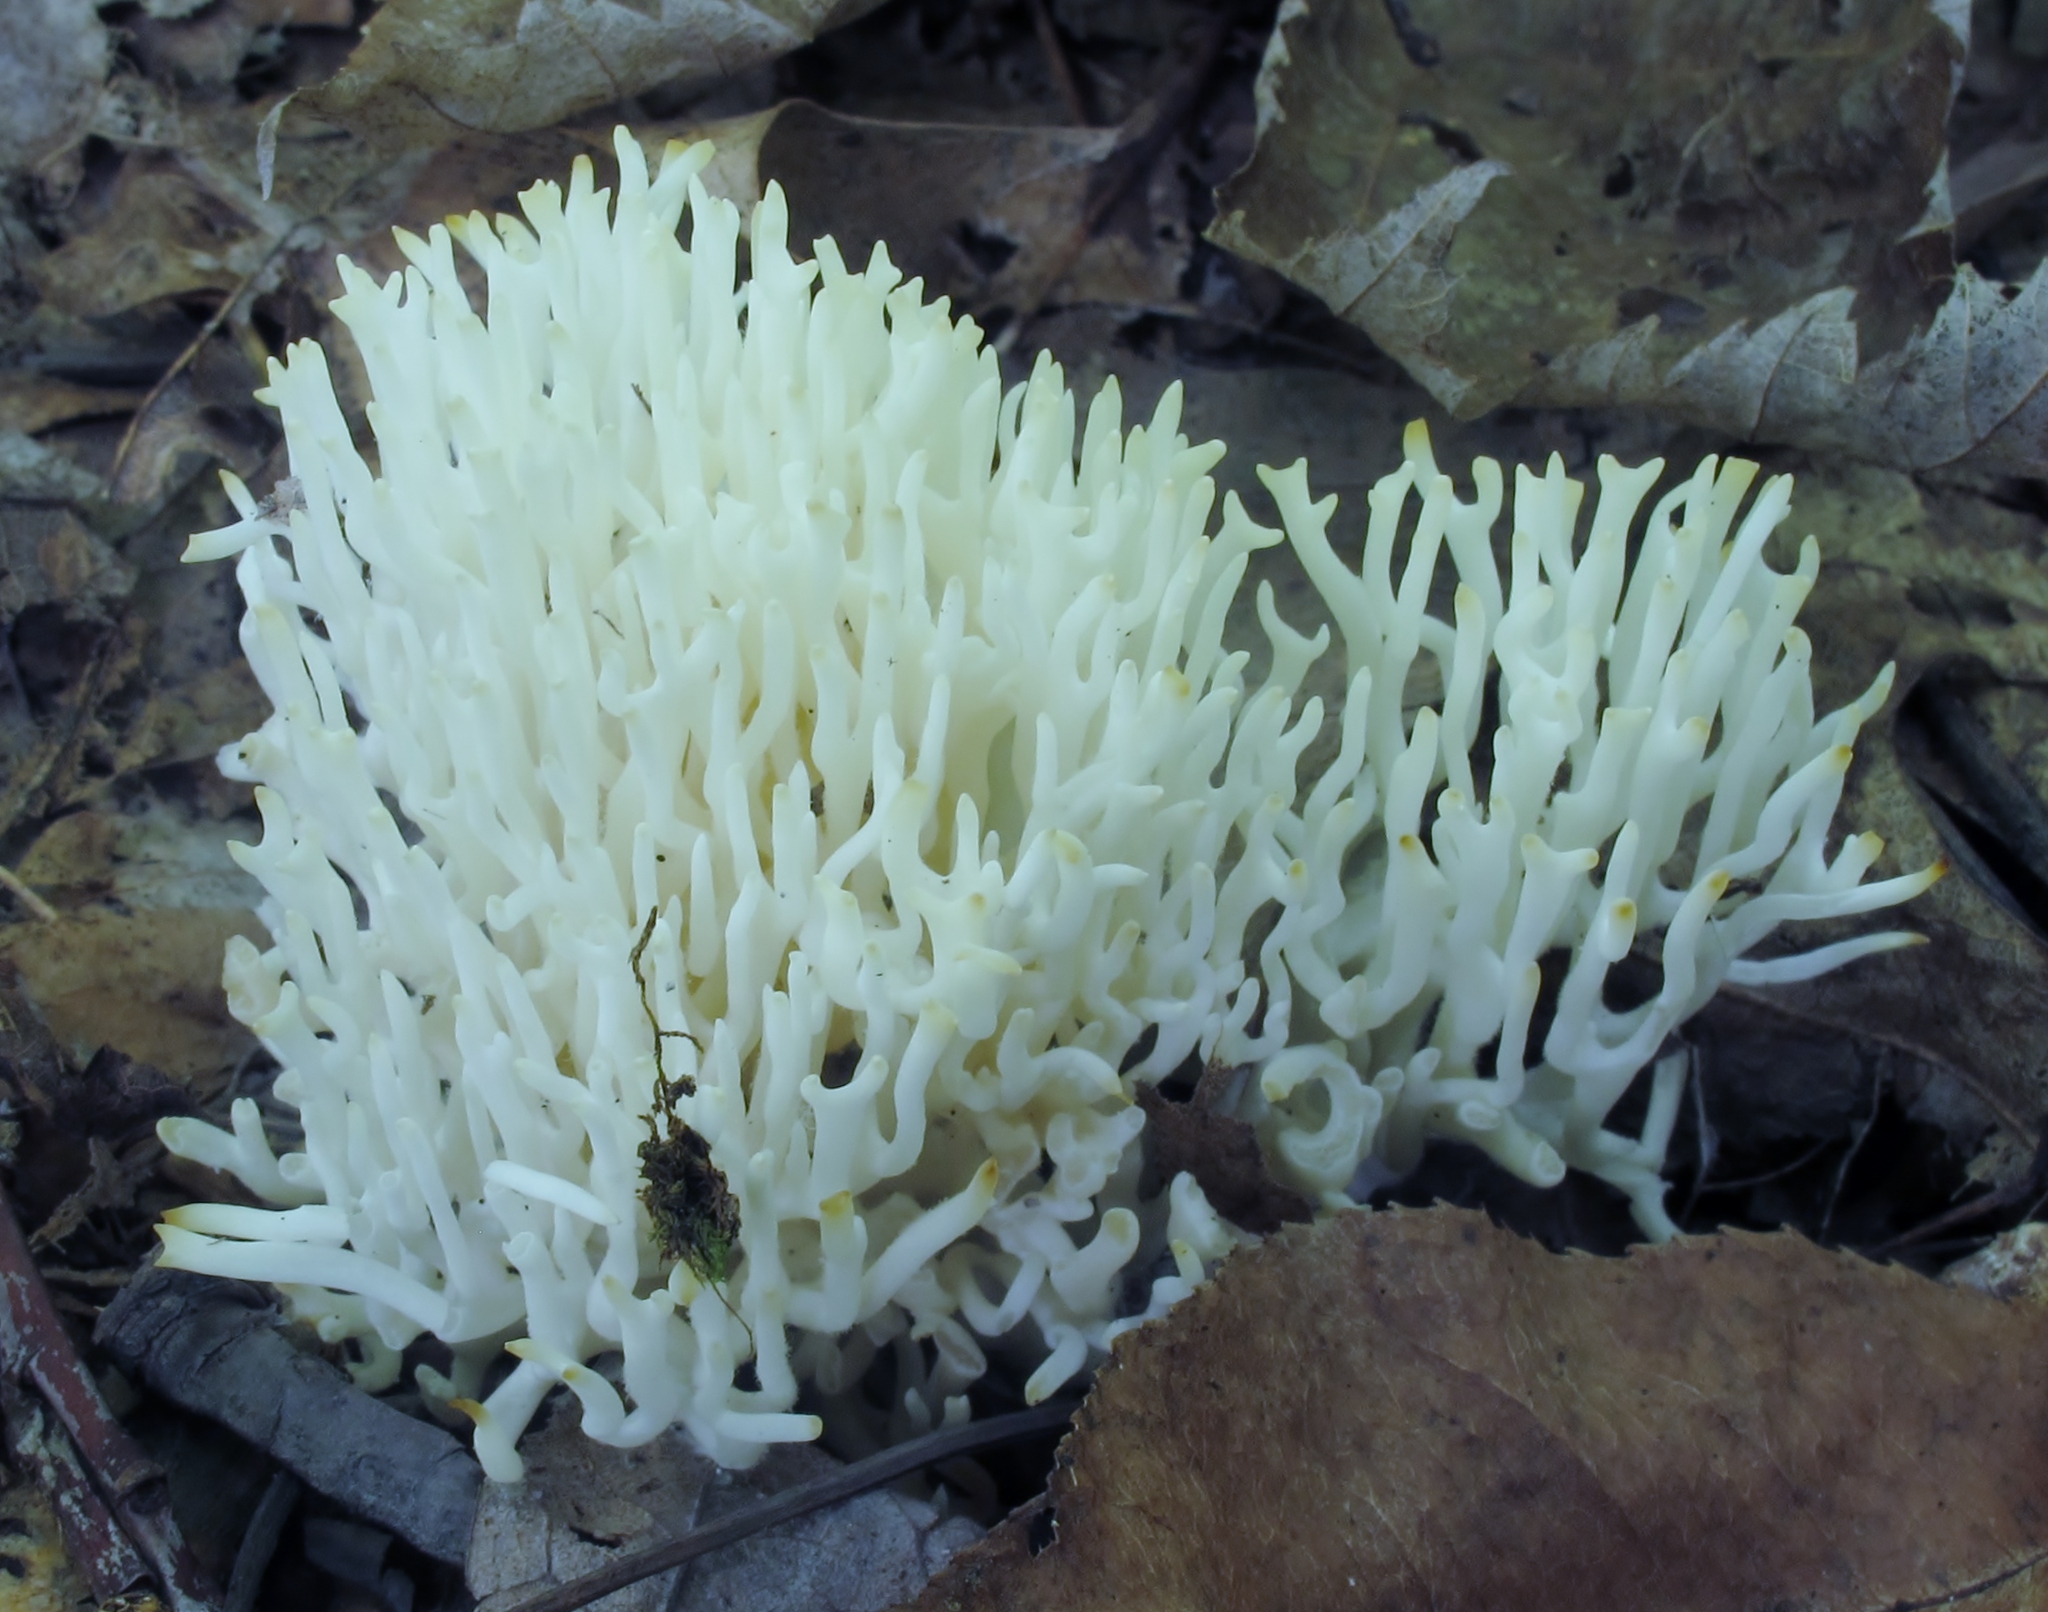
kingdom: Fungi
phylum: Basidiomycota
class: Agaricomycetes
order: Agaricales
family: Clavariaceae
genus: Ramariopsis
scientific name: Ramariopsis kunzei
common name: Ivory coral
